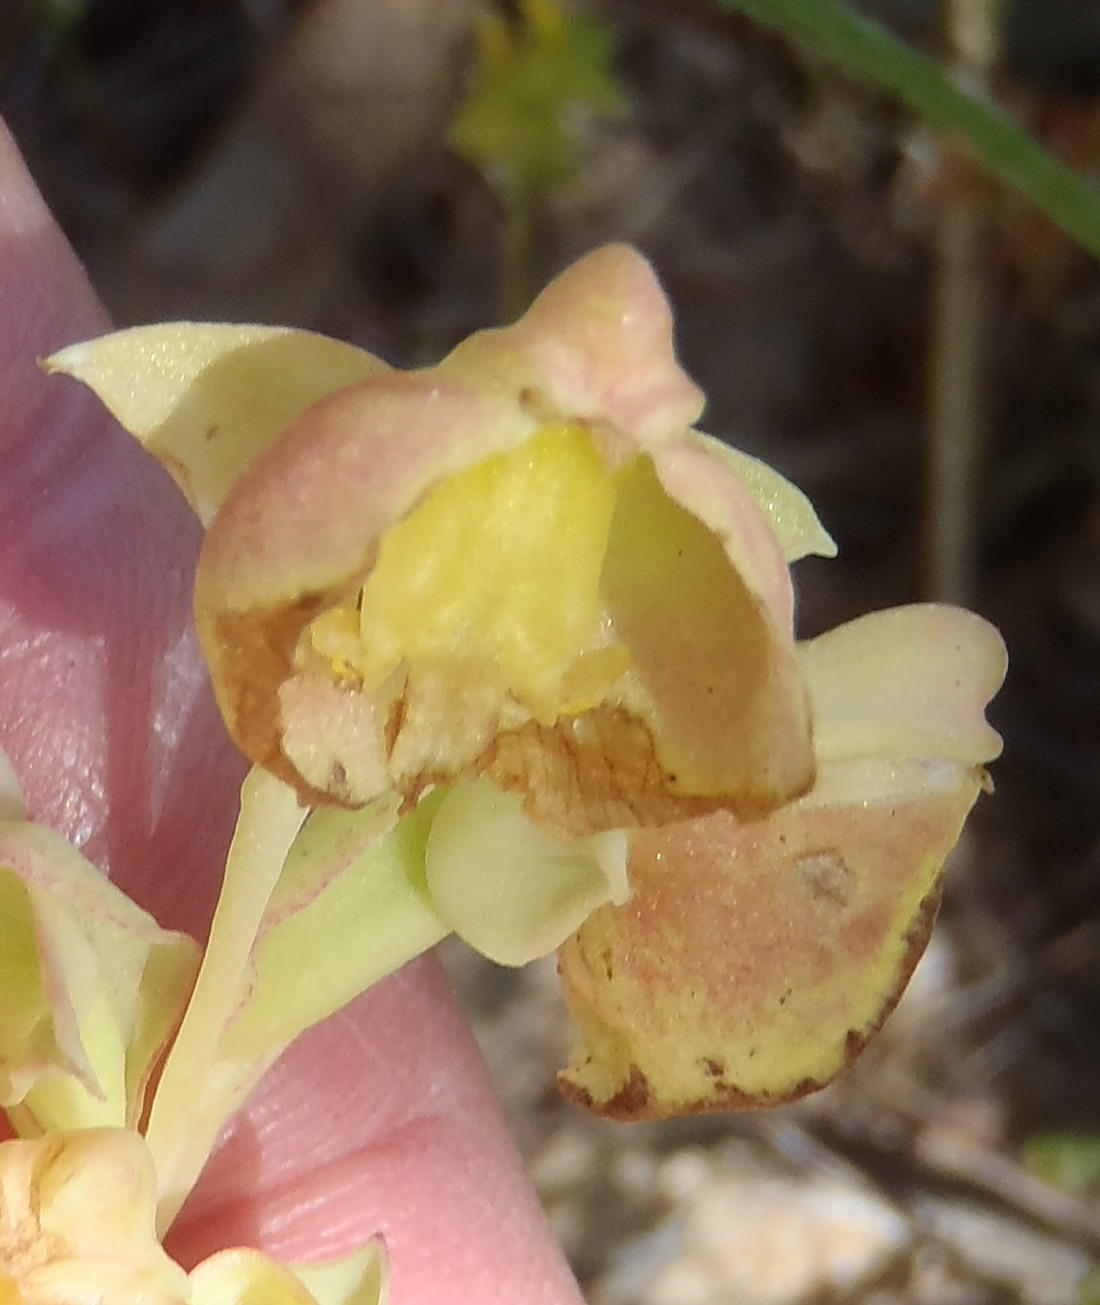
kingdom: Plantae
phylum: Tracheophyta
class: Liliopsida
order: Asparagales
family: Orchidaceae
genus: Pterygodium
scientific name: Pterygodium catholicum
